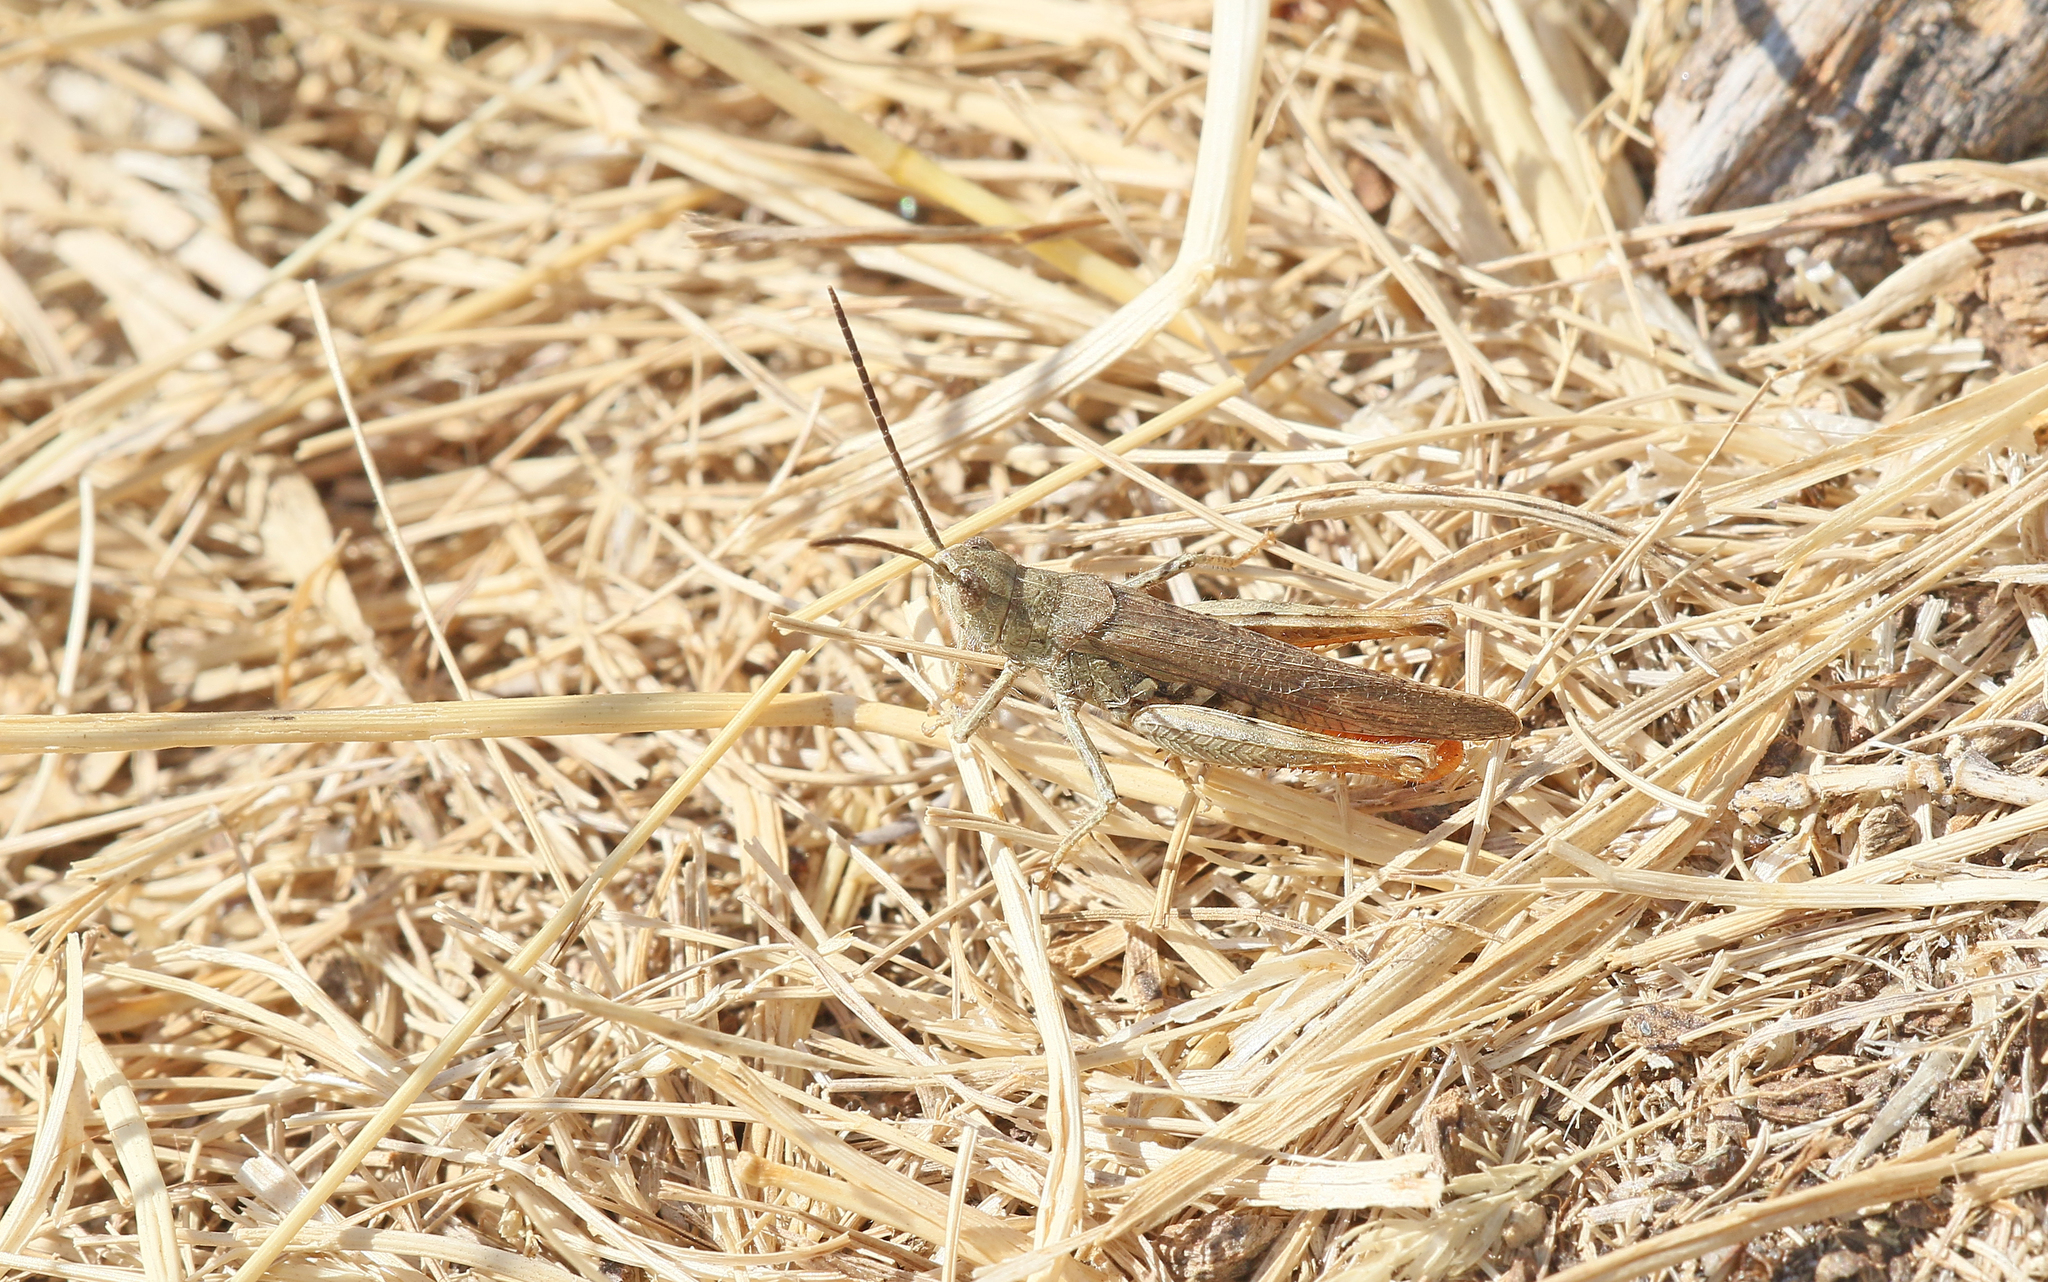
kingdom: Animalia
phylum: Arthropoda
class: Insecta
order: Orthoptera
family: Acrididae
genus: Chorthippus
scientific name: Chorthippus brunneus
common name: Field grasshopper
